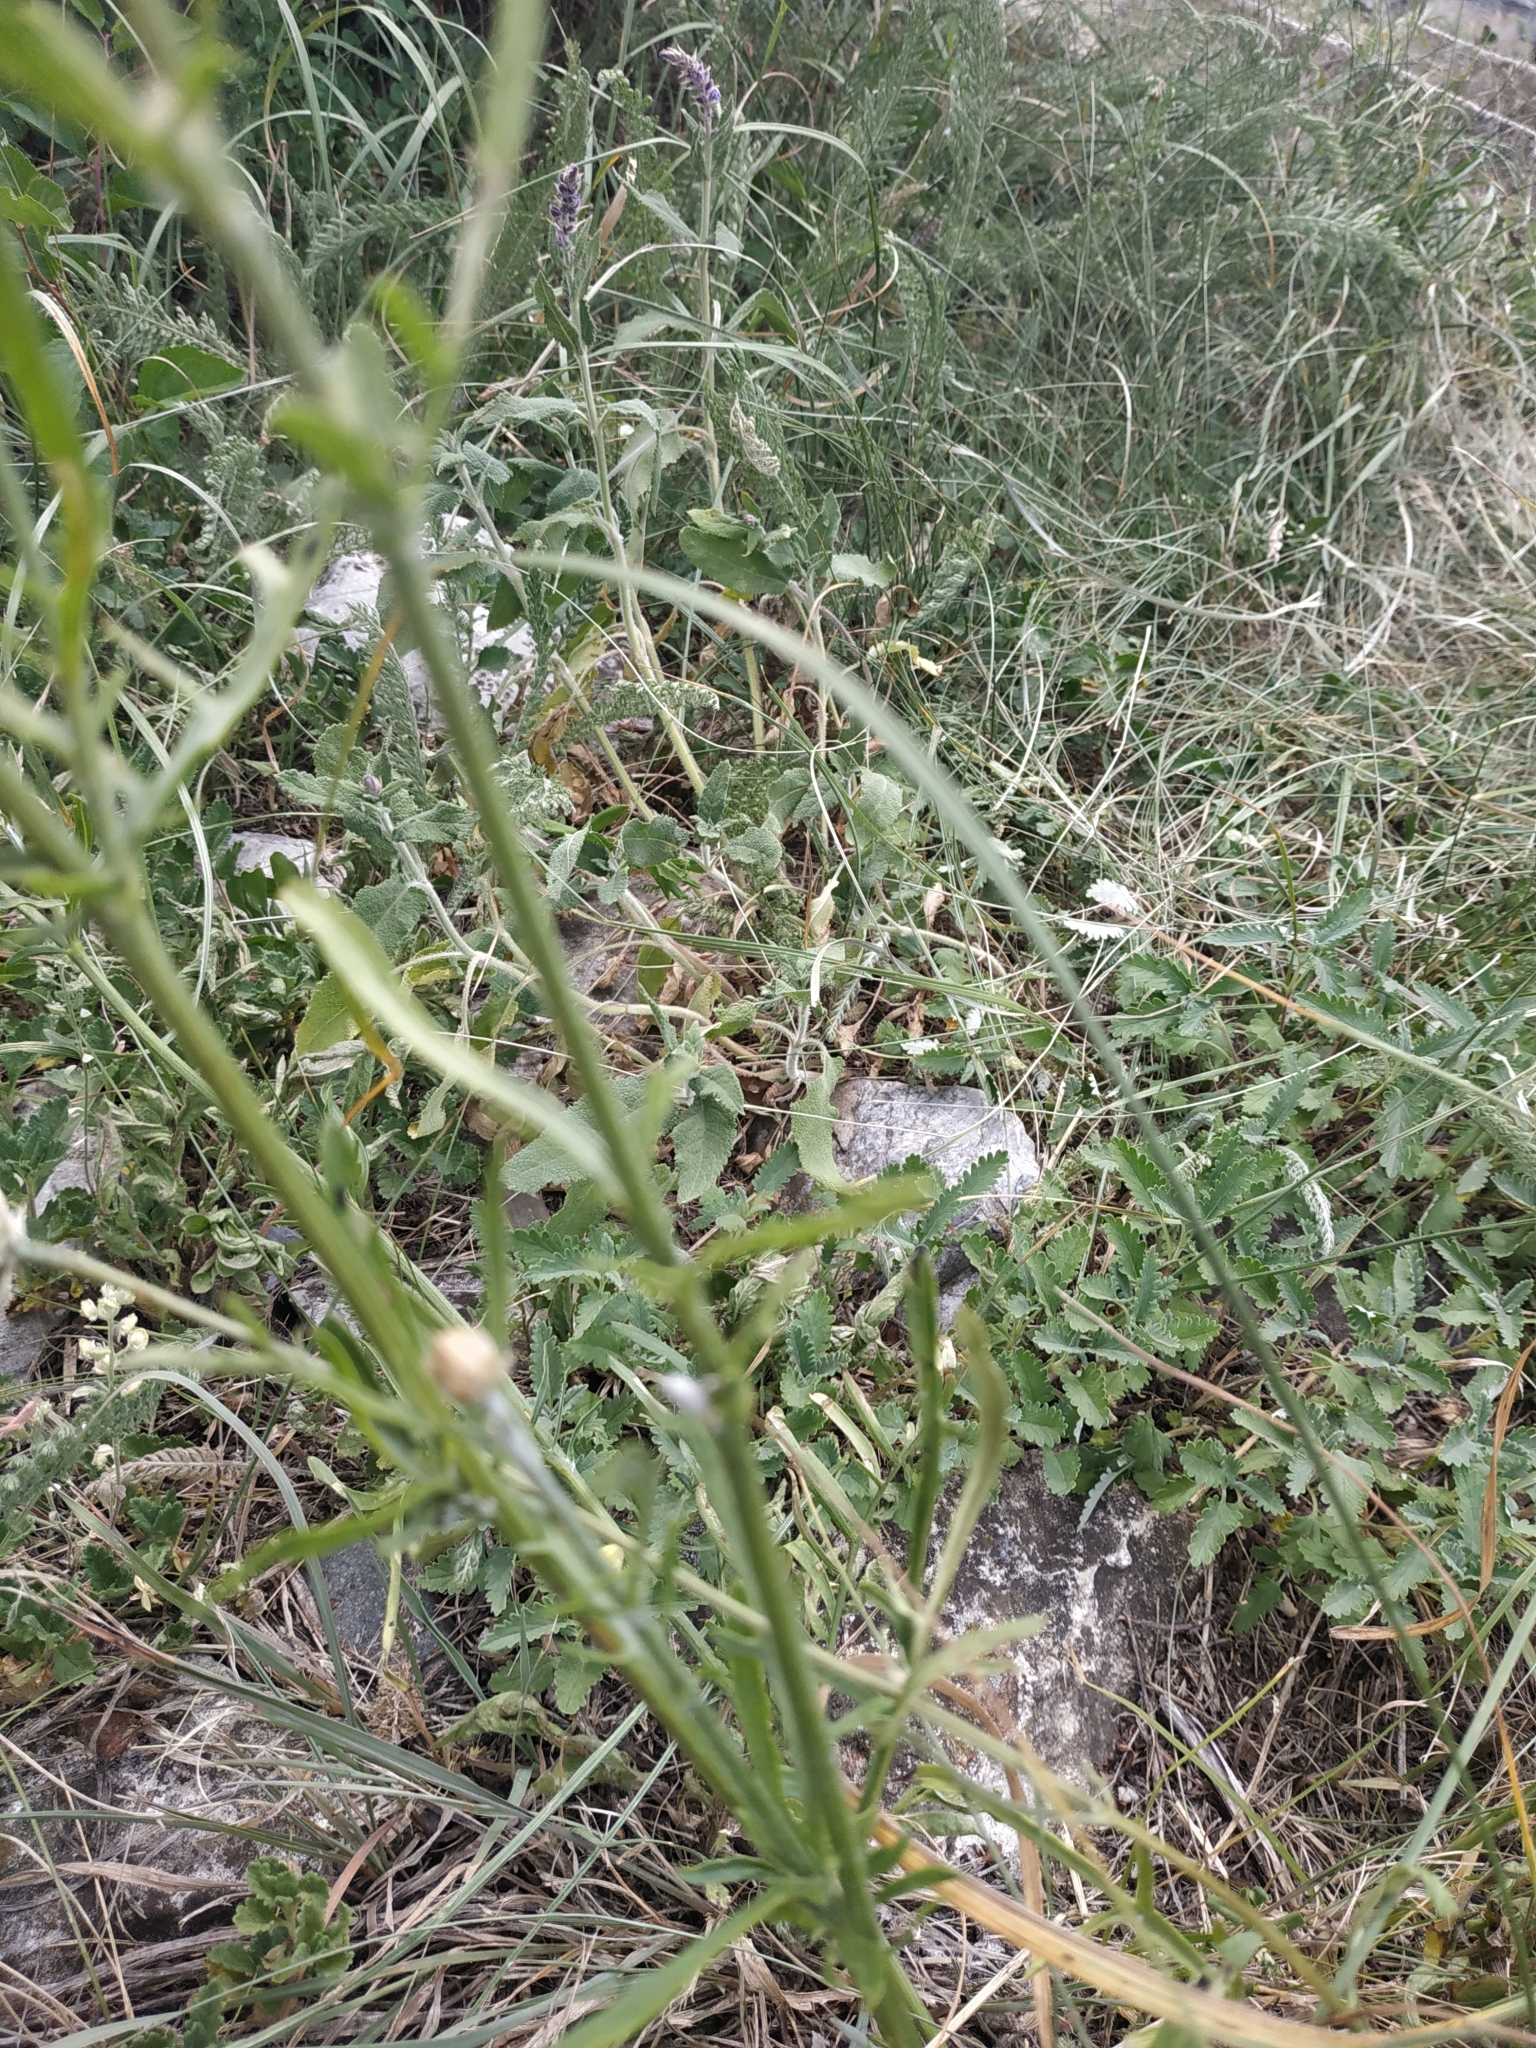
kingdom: Plantae
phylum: Tracheophyta
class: Magnoliopsida
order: Asterales
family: Asteraceae
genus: Centaurea
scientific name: Centaurea orientalis
